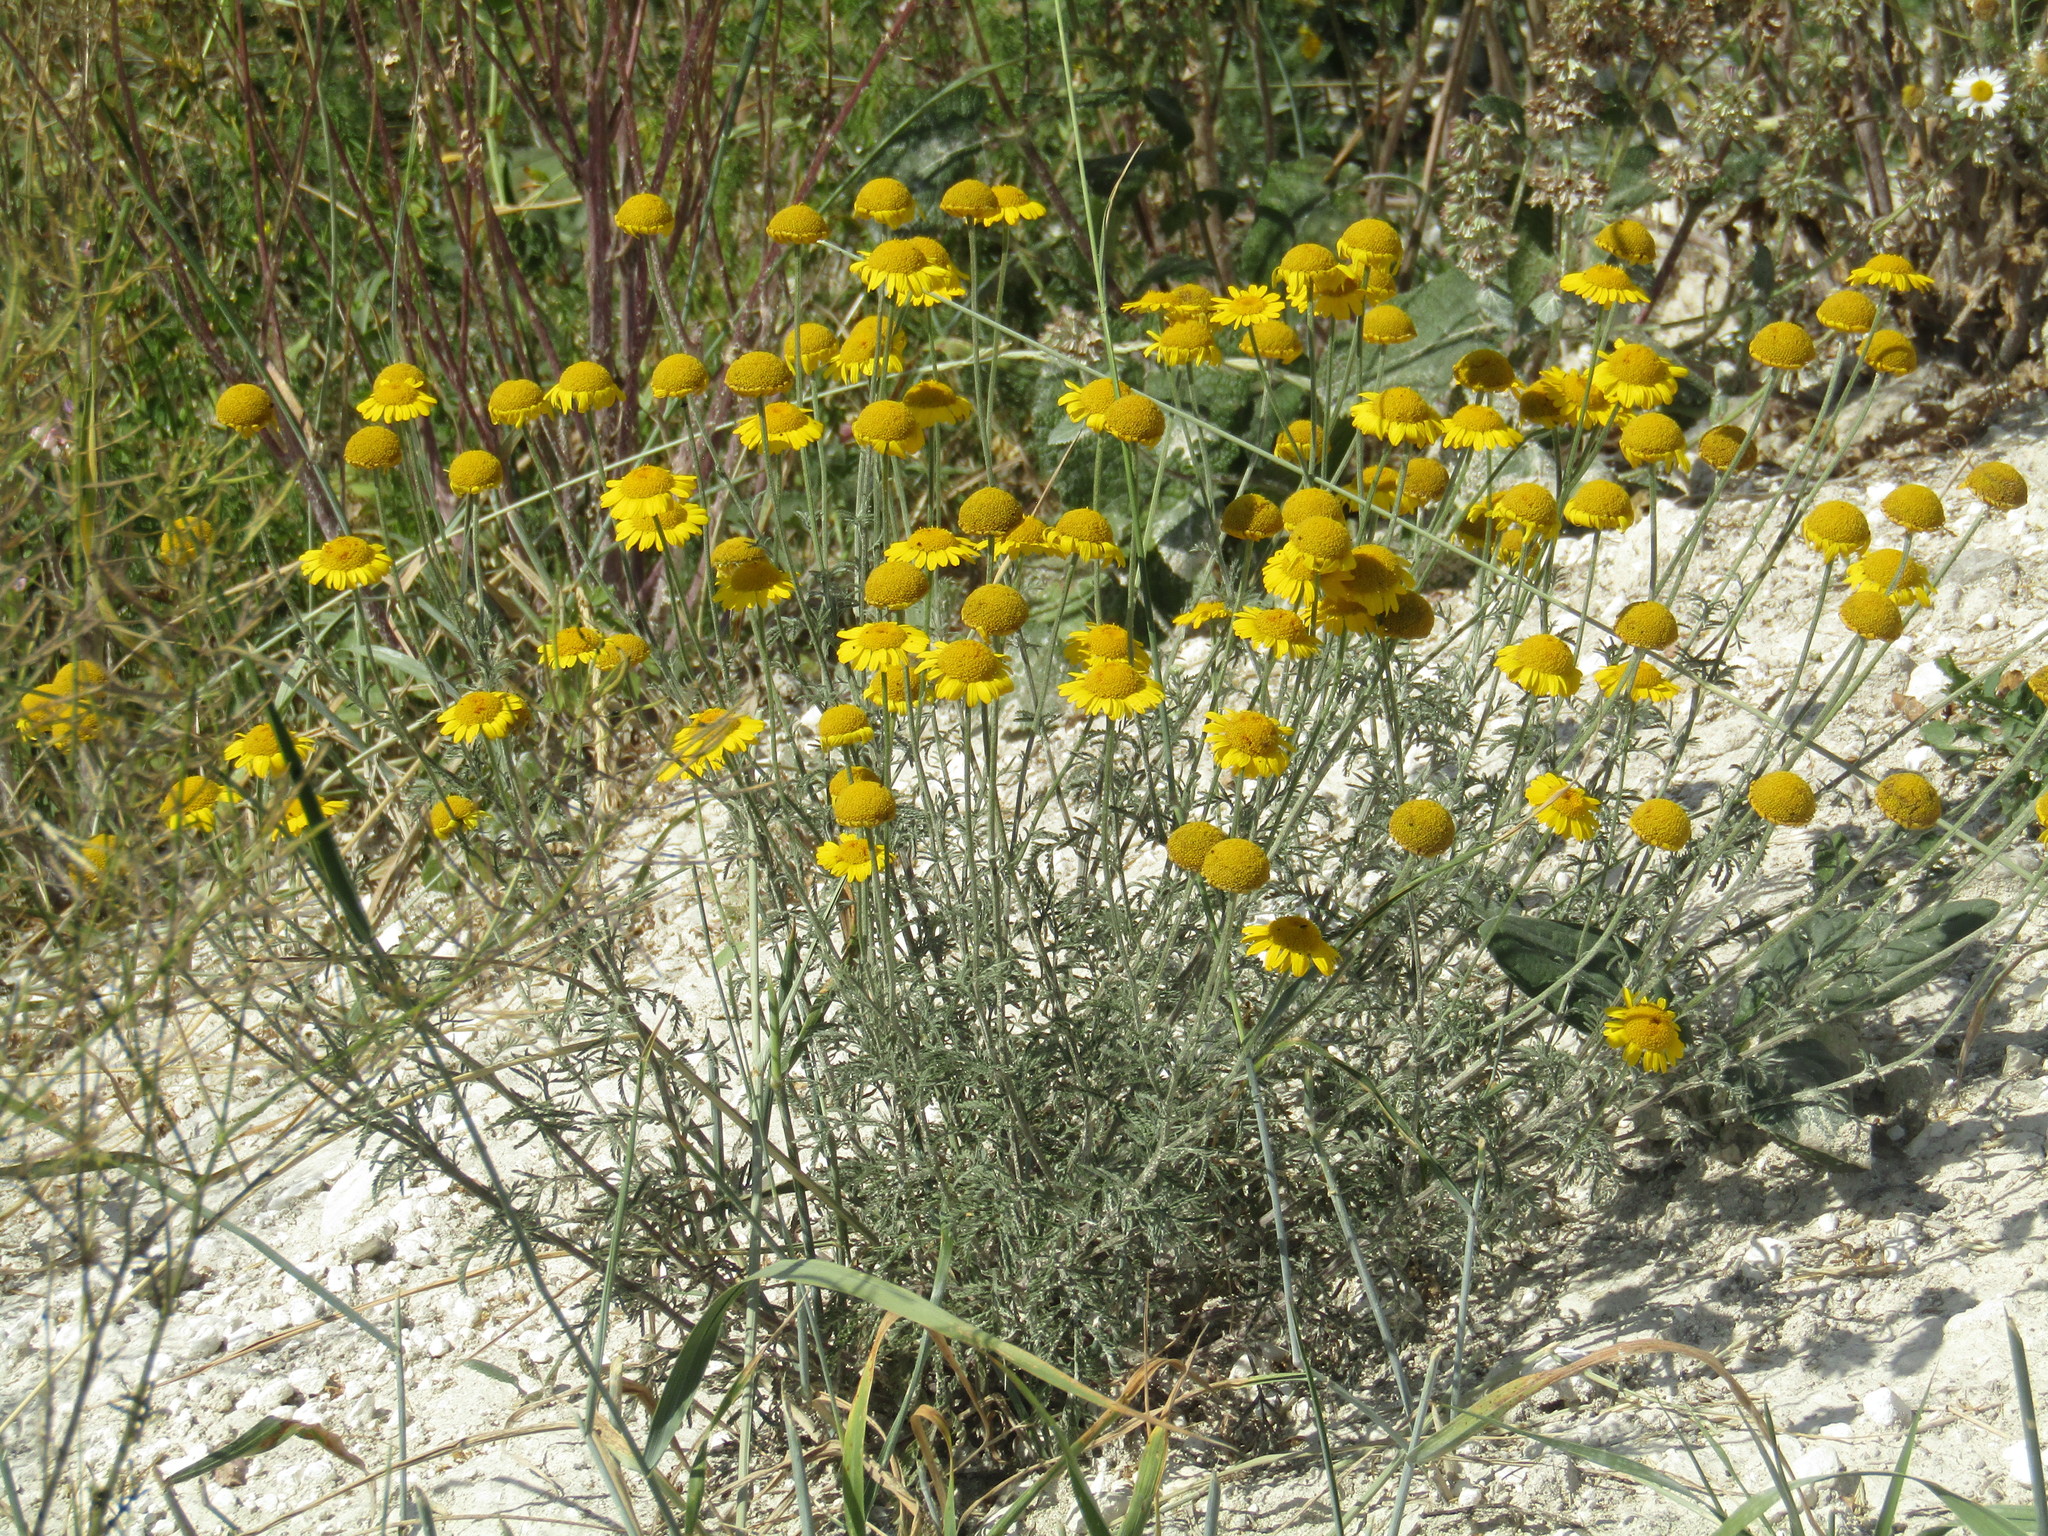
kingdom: Plantae
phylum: Tracheophyta
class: Magnoliopsida
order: Asterales
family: Asteraceae
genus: Cota
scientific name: Cota tinctoria
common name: Golden chamomile
